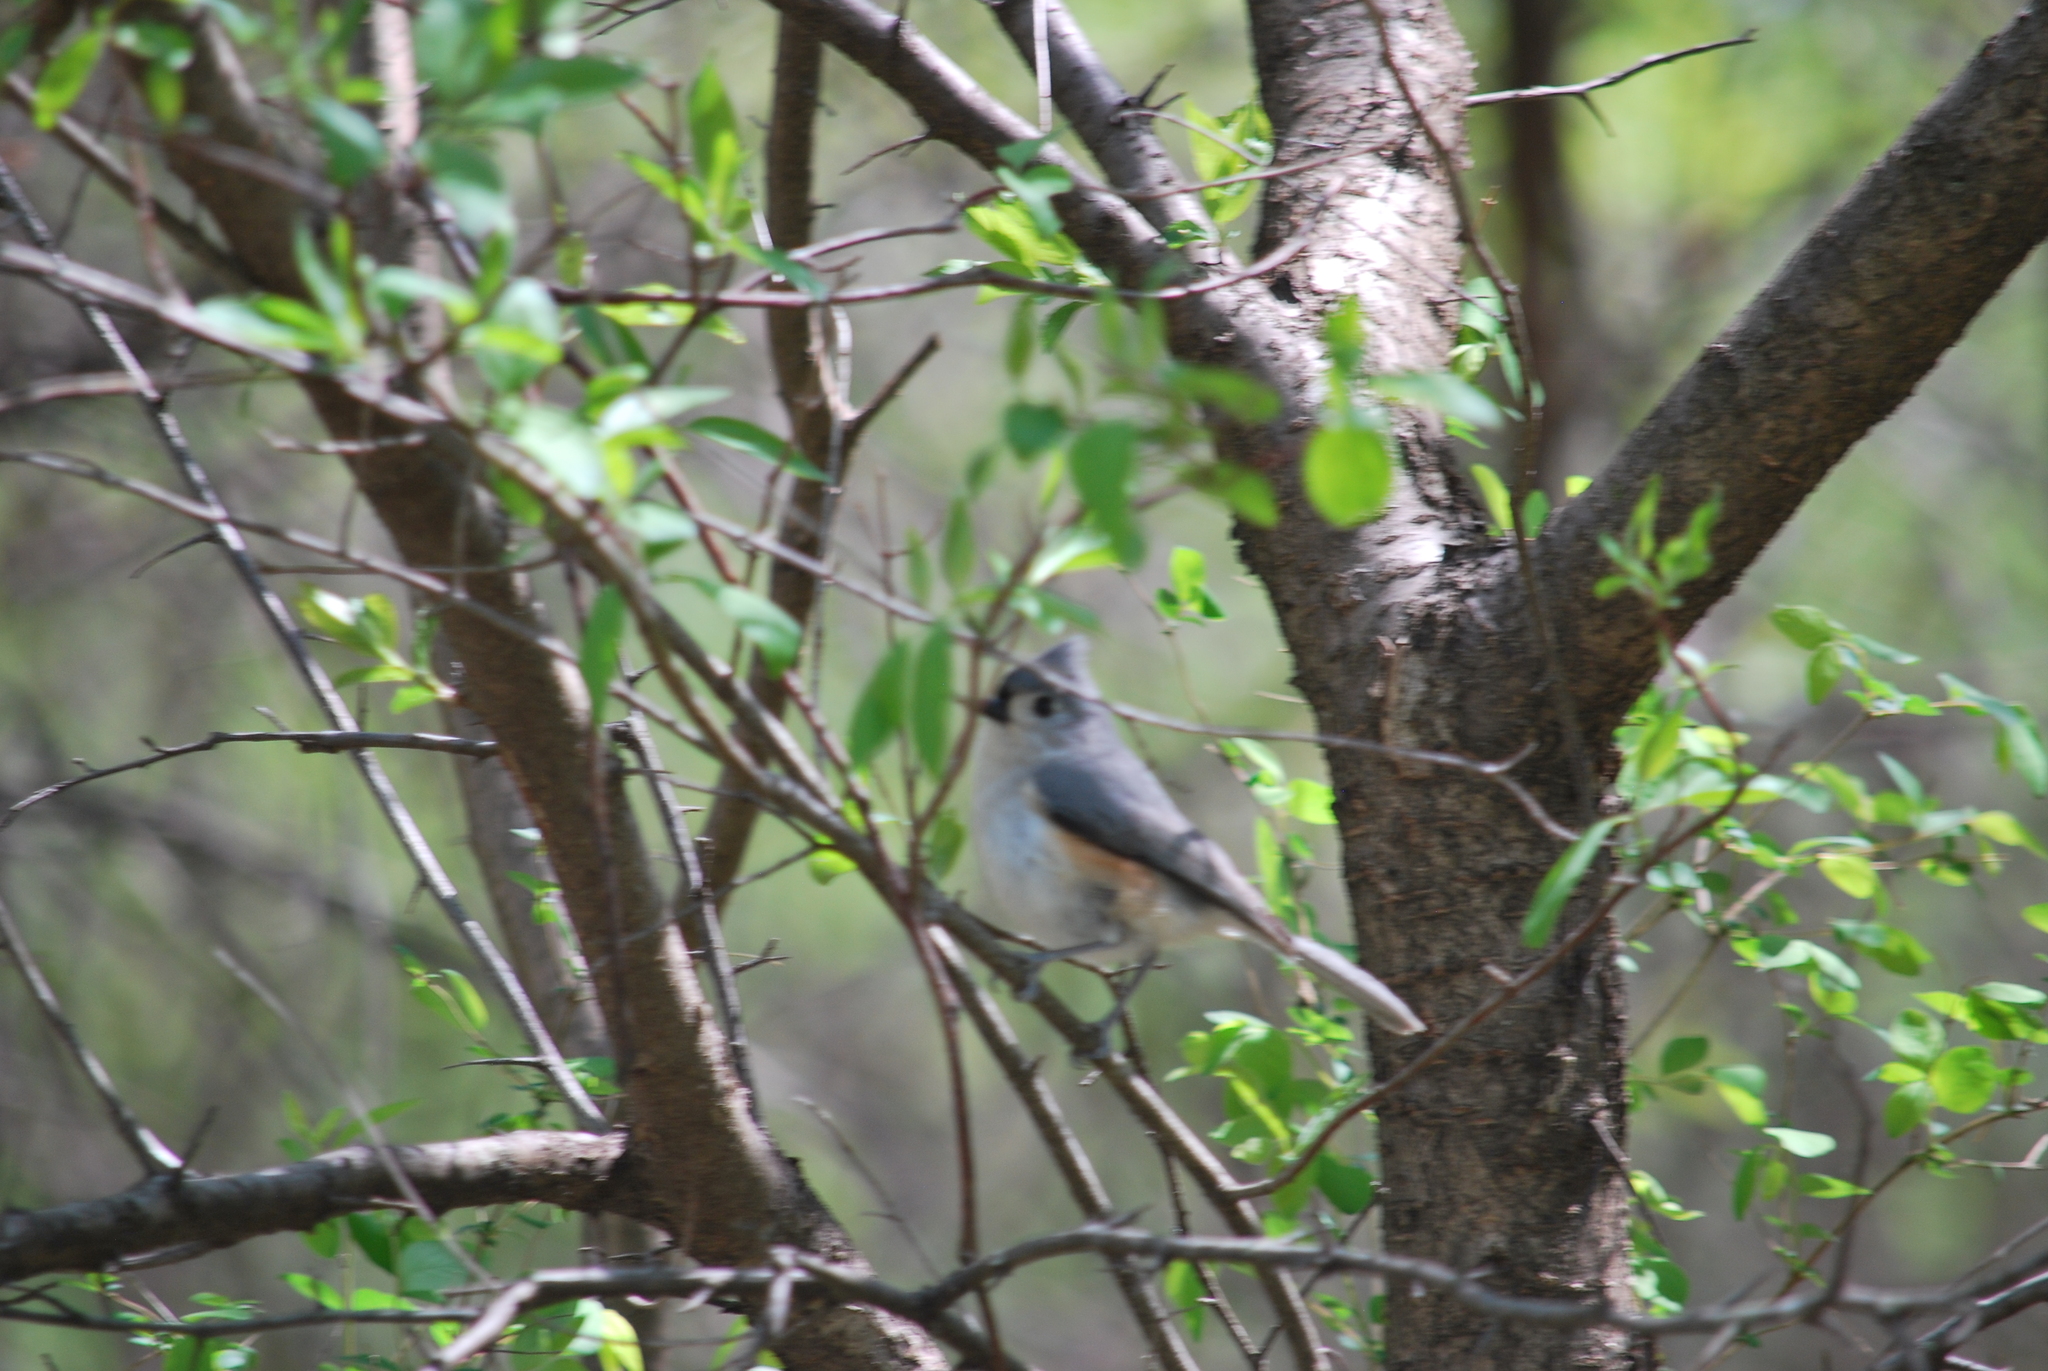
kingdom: Animalia
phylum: Chordata
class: Aves
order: Passeriformes
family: Paridae
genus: Baeolophus
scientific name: Baeolophus bicolor
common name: Tufted titmouse
